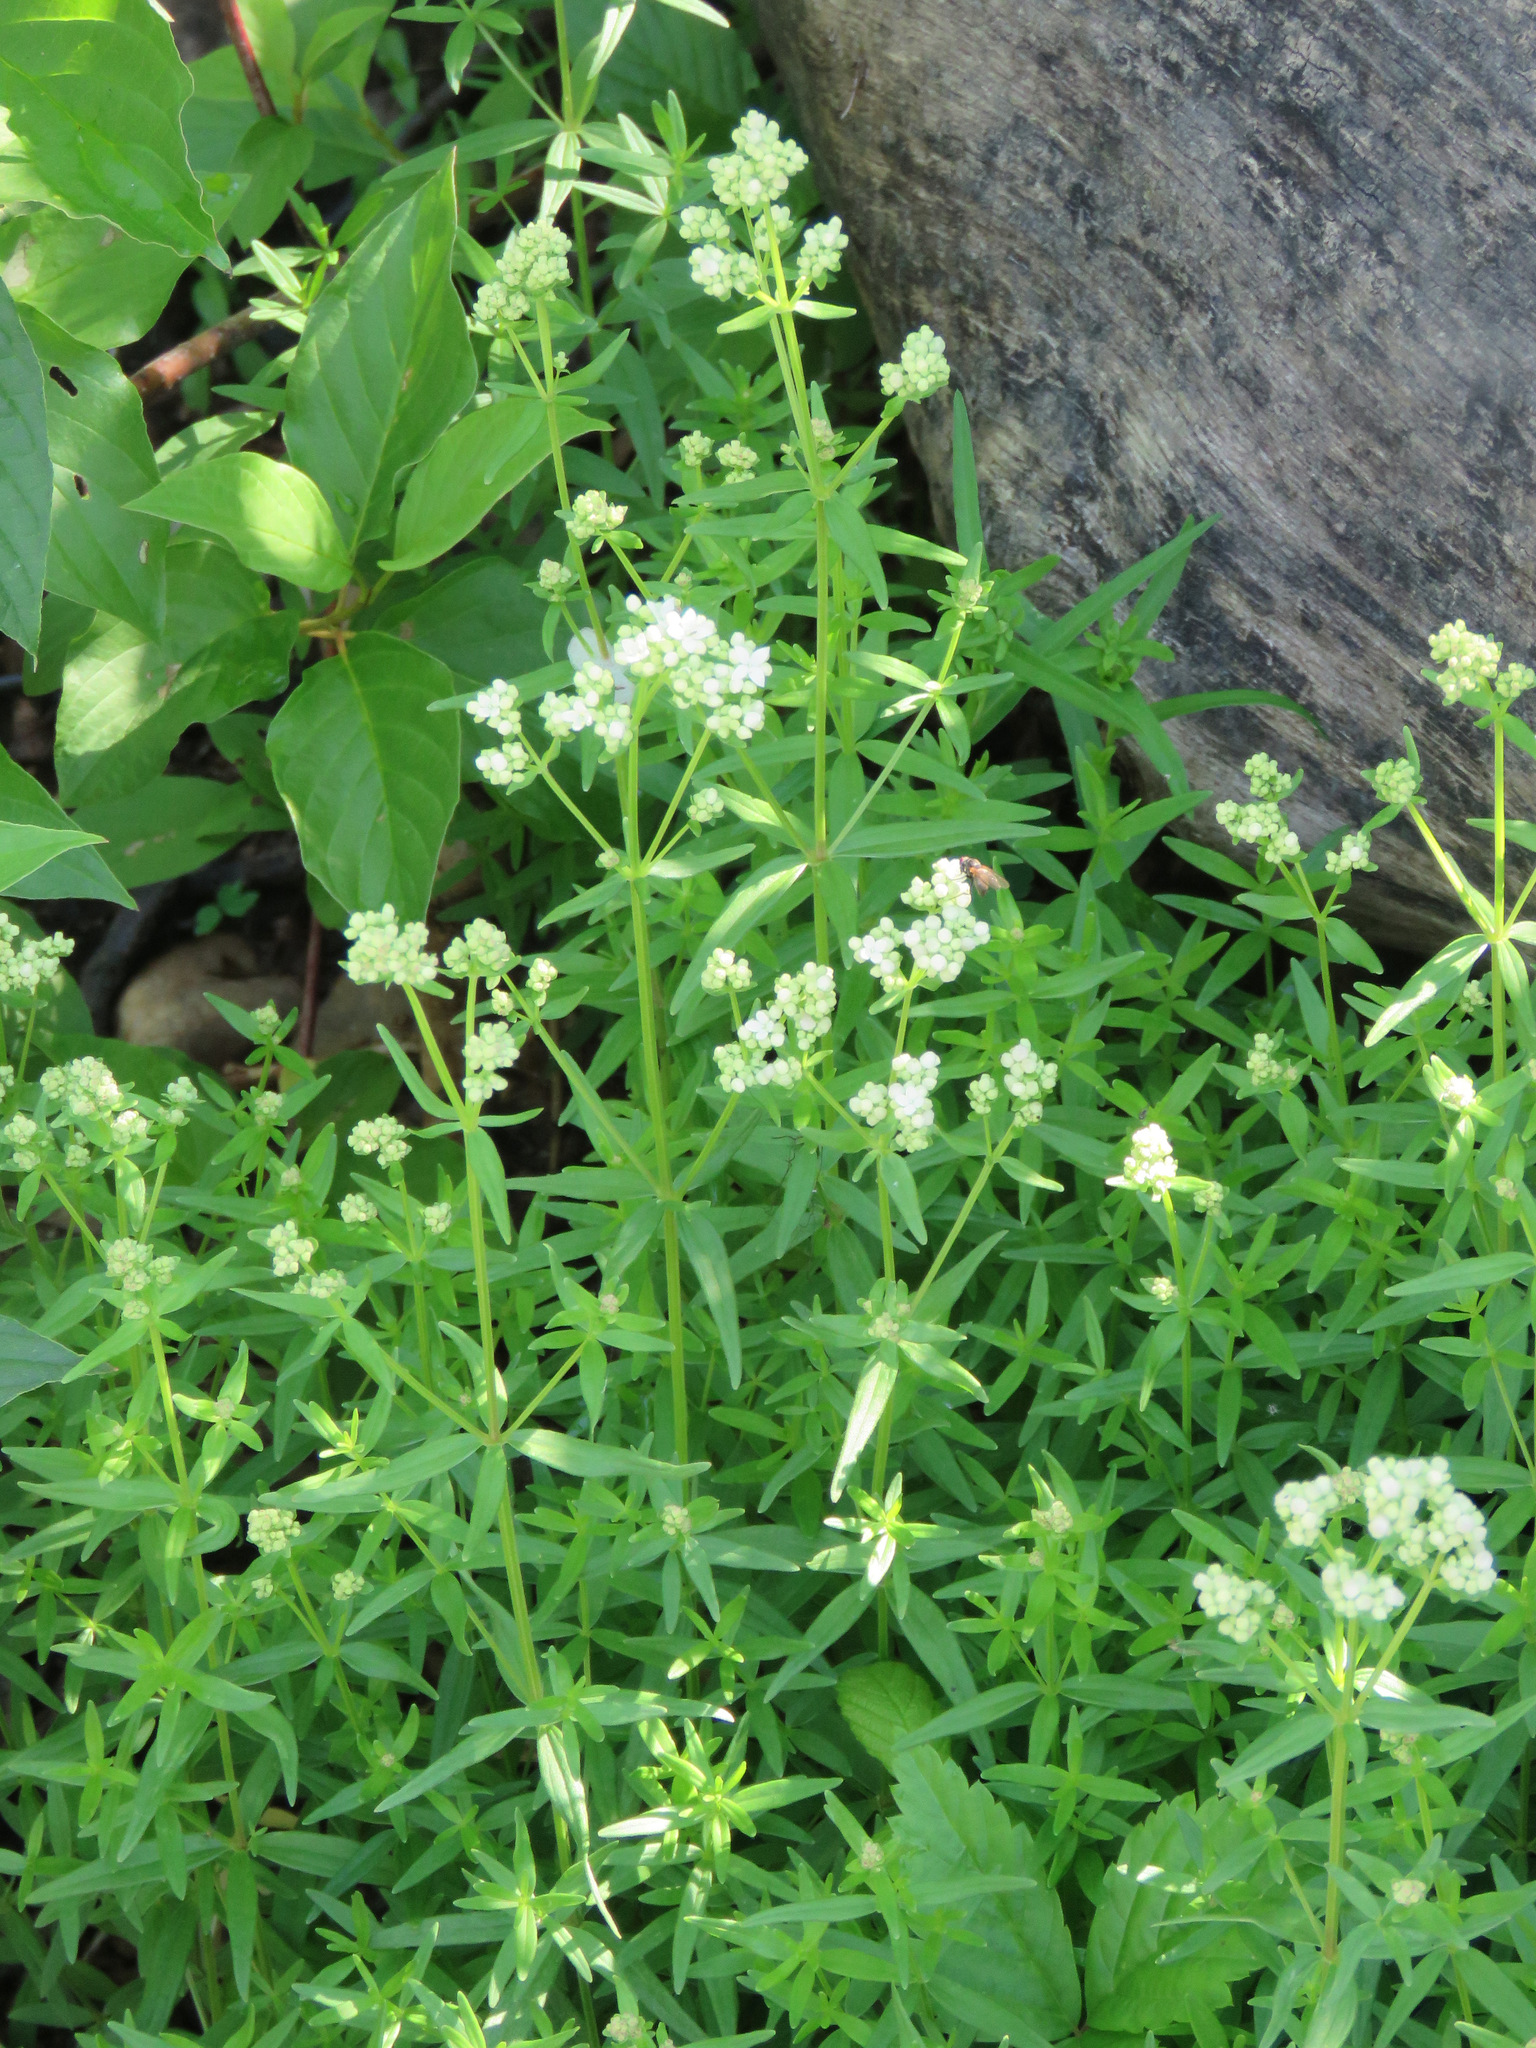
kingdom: Plantae
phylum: Tracheophyta
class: Magnoliopsida
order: Gentianales
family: Rubiaceae
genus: Galium
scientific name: Galium boreale
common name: Northern bedstraw
